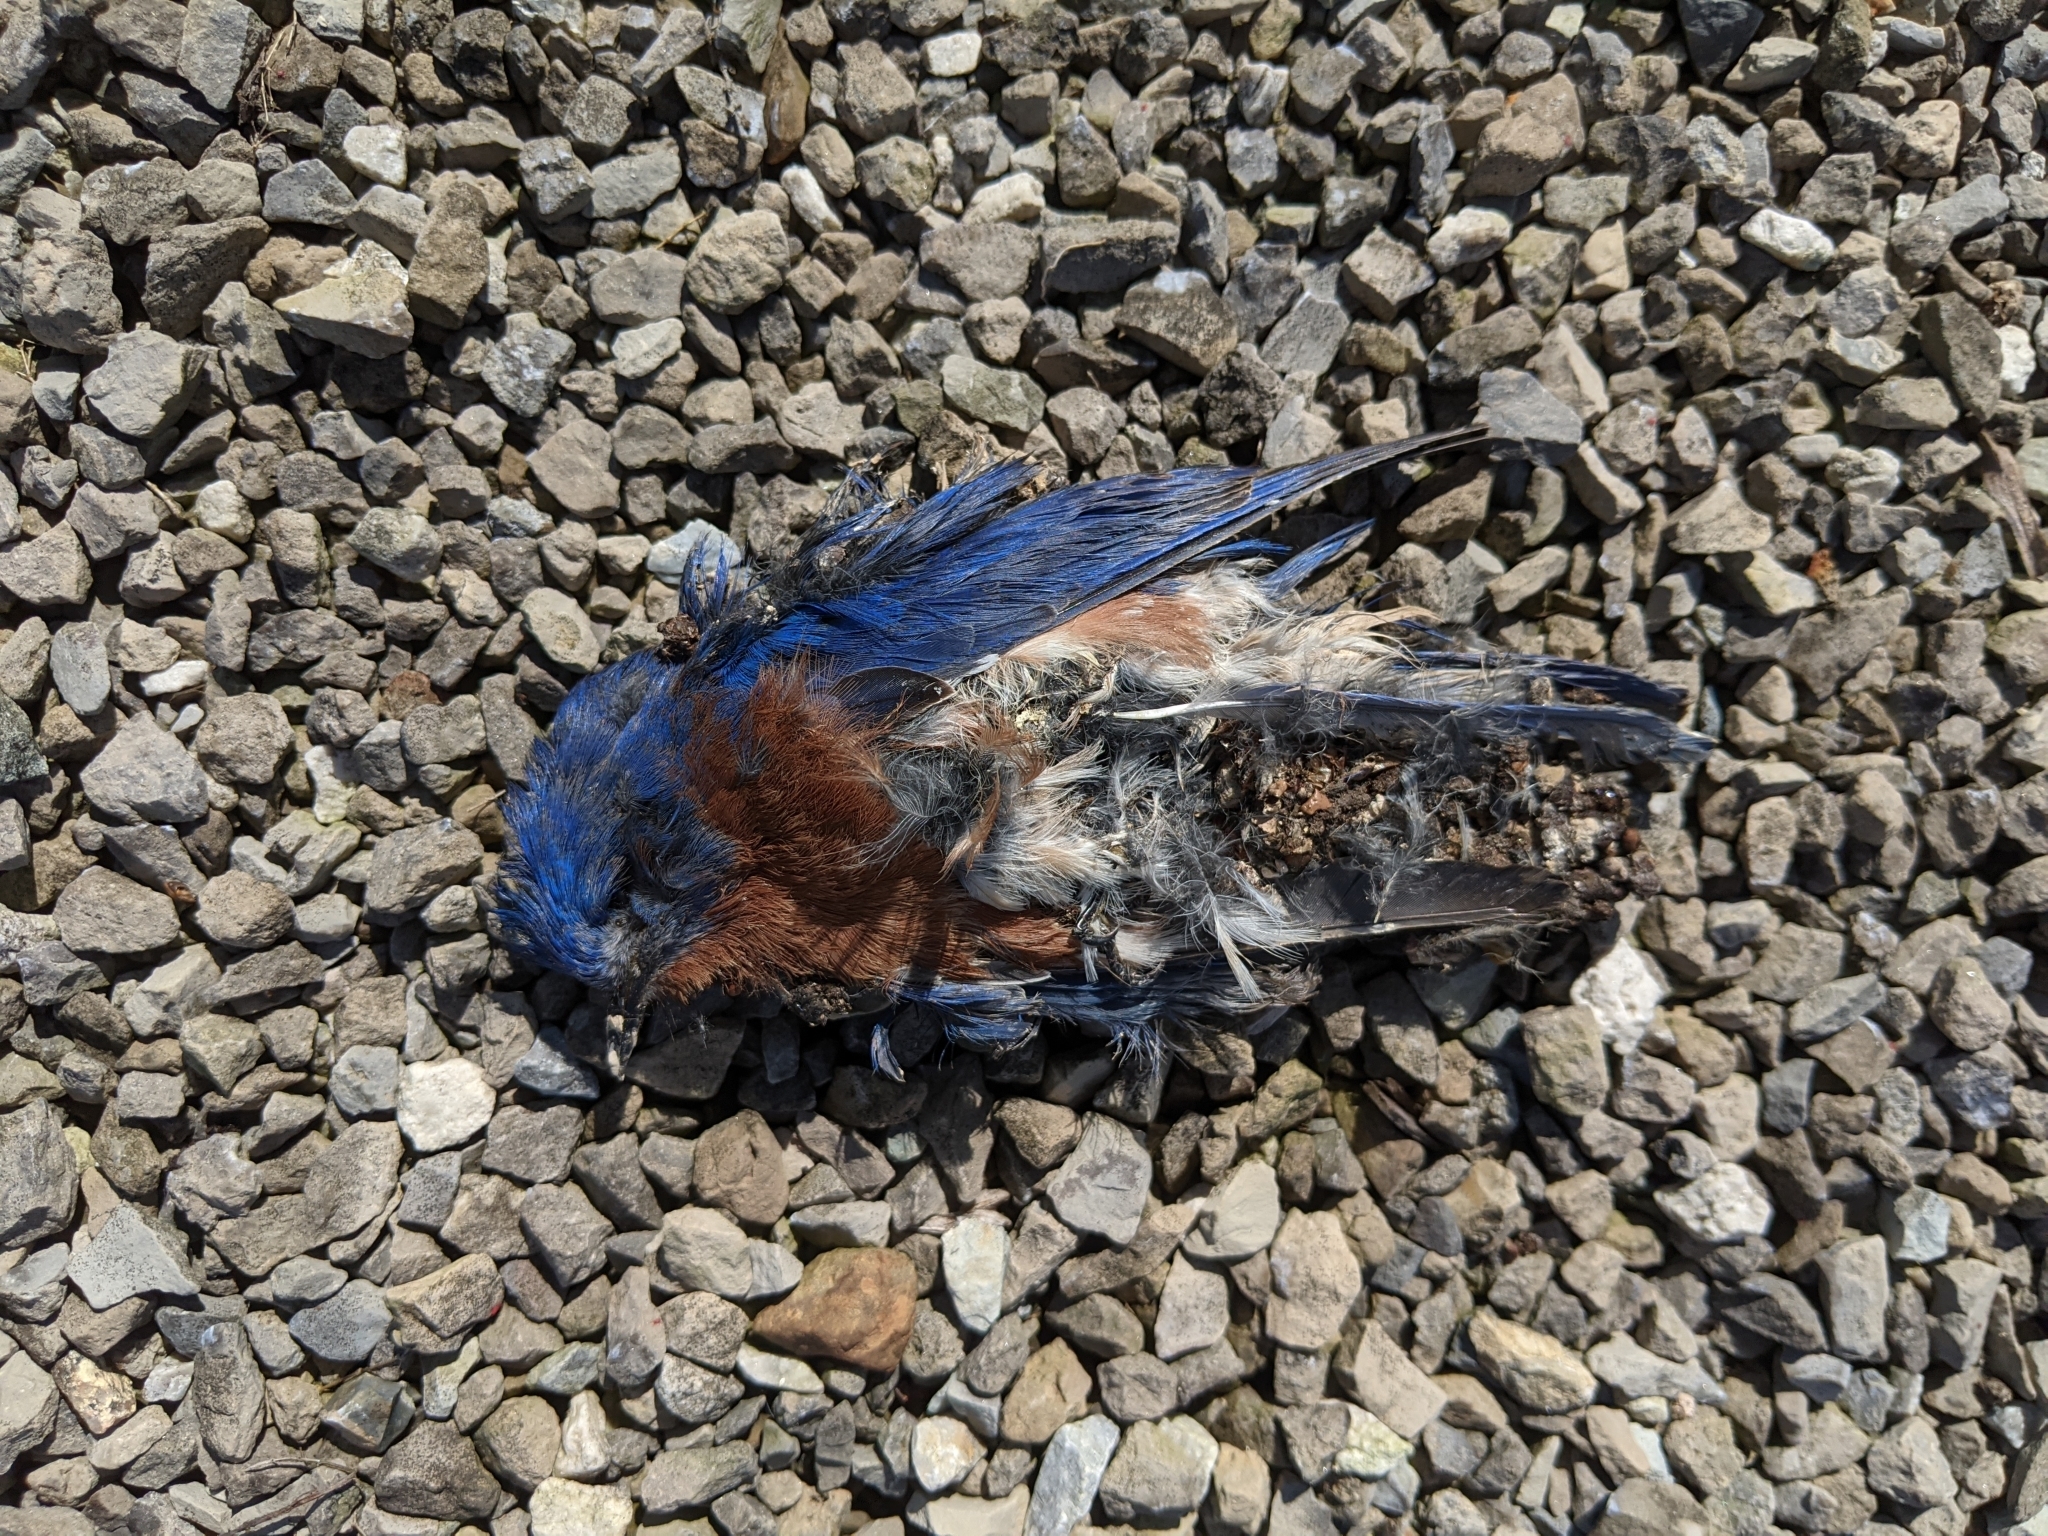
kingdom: Animalia
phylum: Chordata
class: Aves
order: Passeriformes
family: Turdidae
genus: Sialia
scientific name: Sialia sialis
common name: Eastern bluebird
